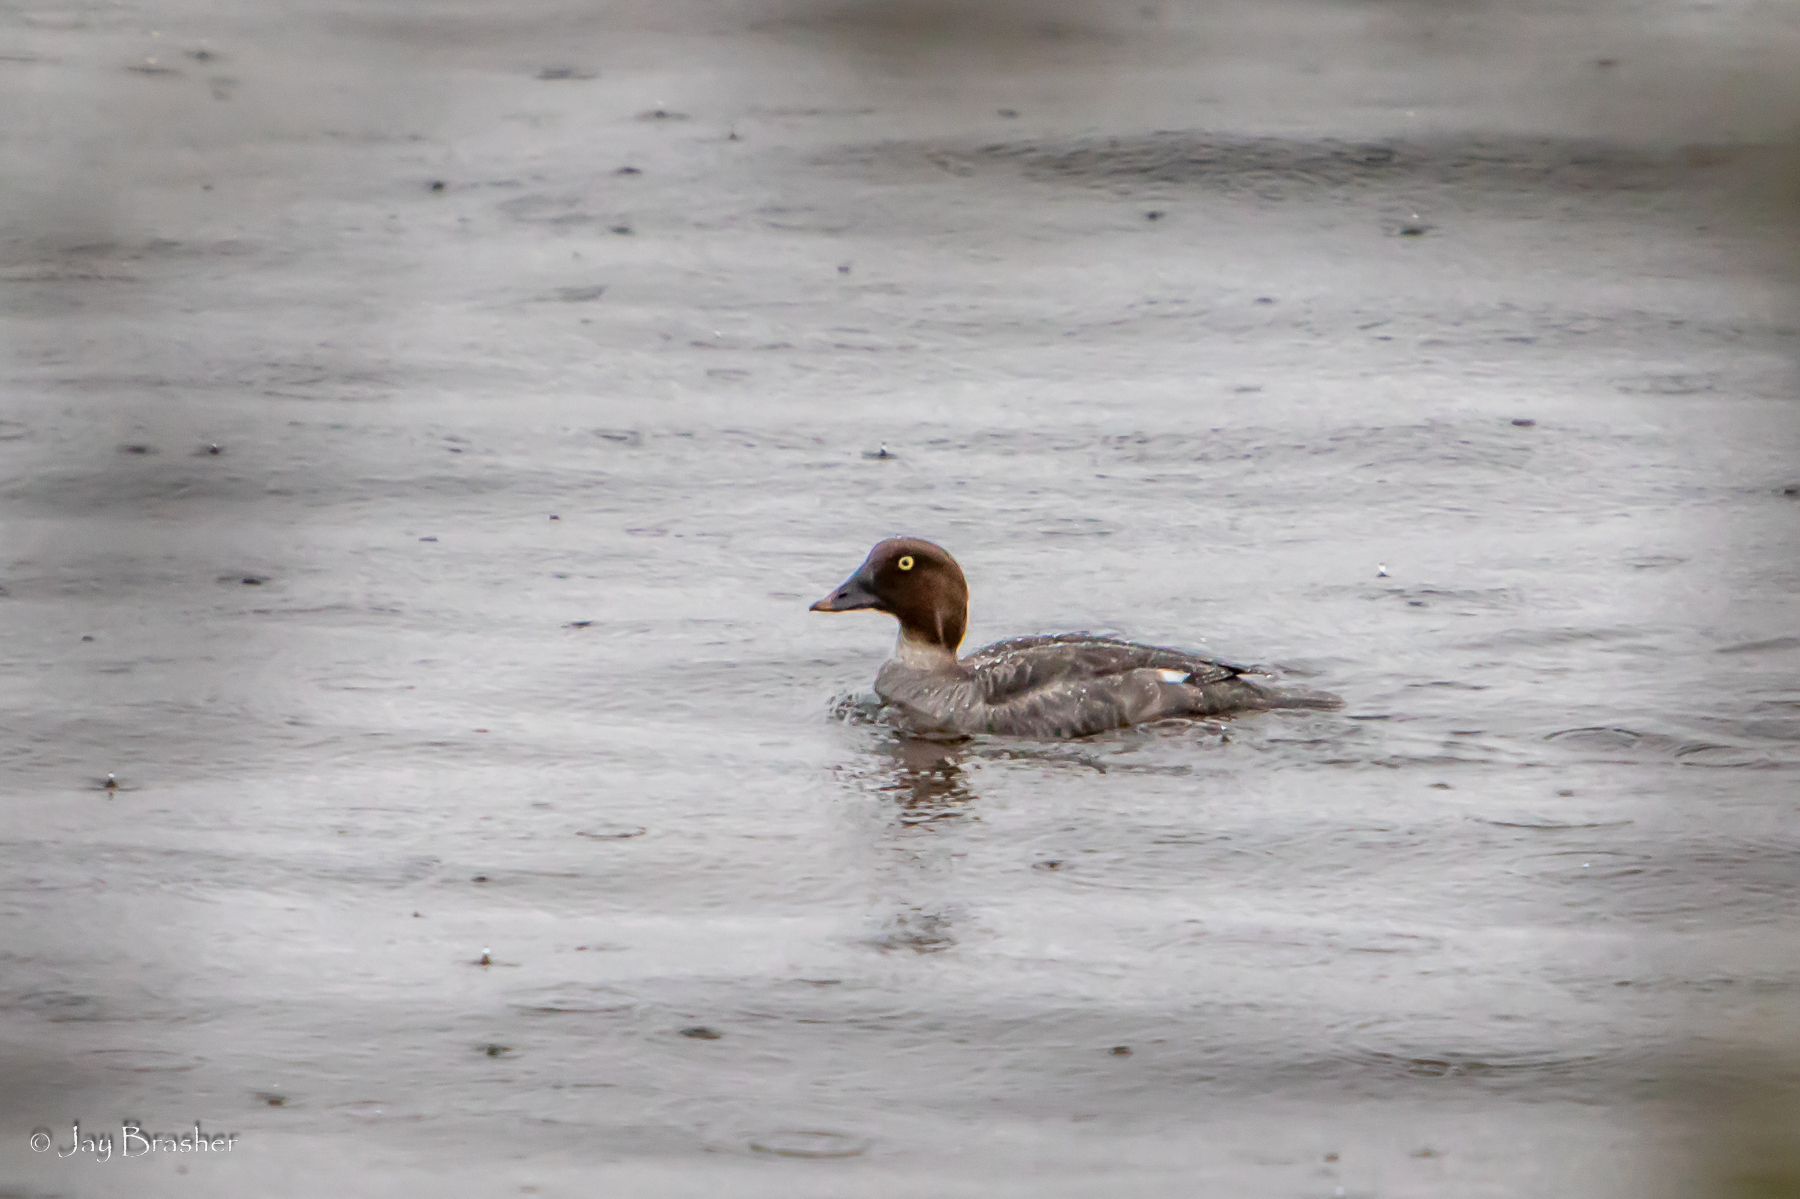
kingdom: Animalia
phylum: Chordata
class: Aves
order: Anseriformes
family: Anatidae
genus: Bucephala
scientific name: Bucephala clangula
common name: Common goldeneye
